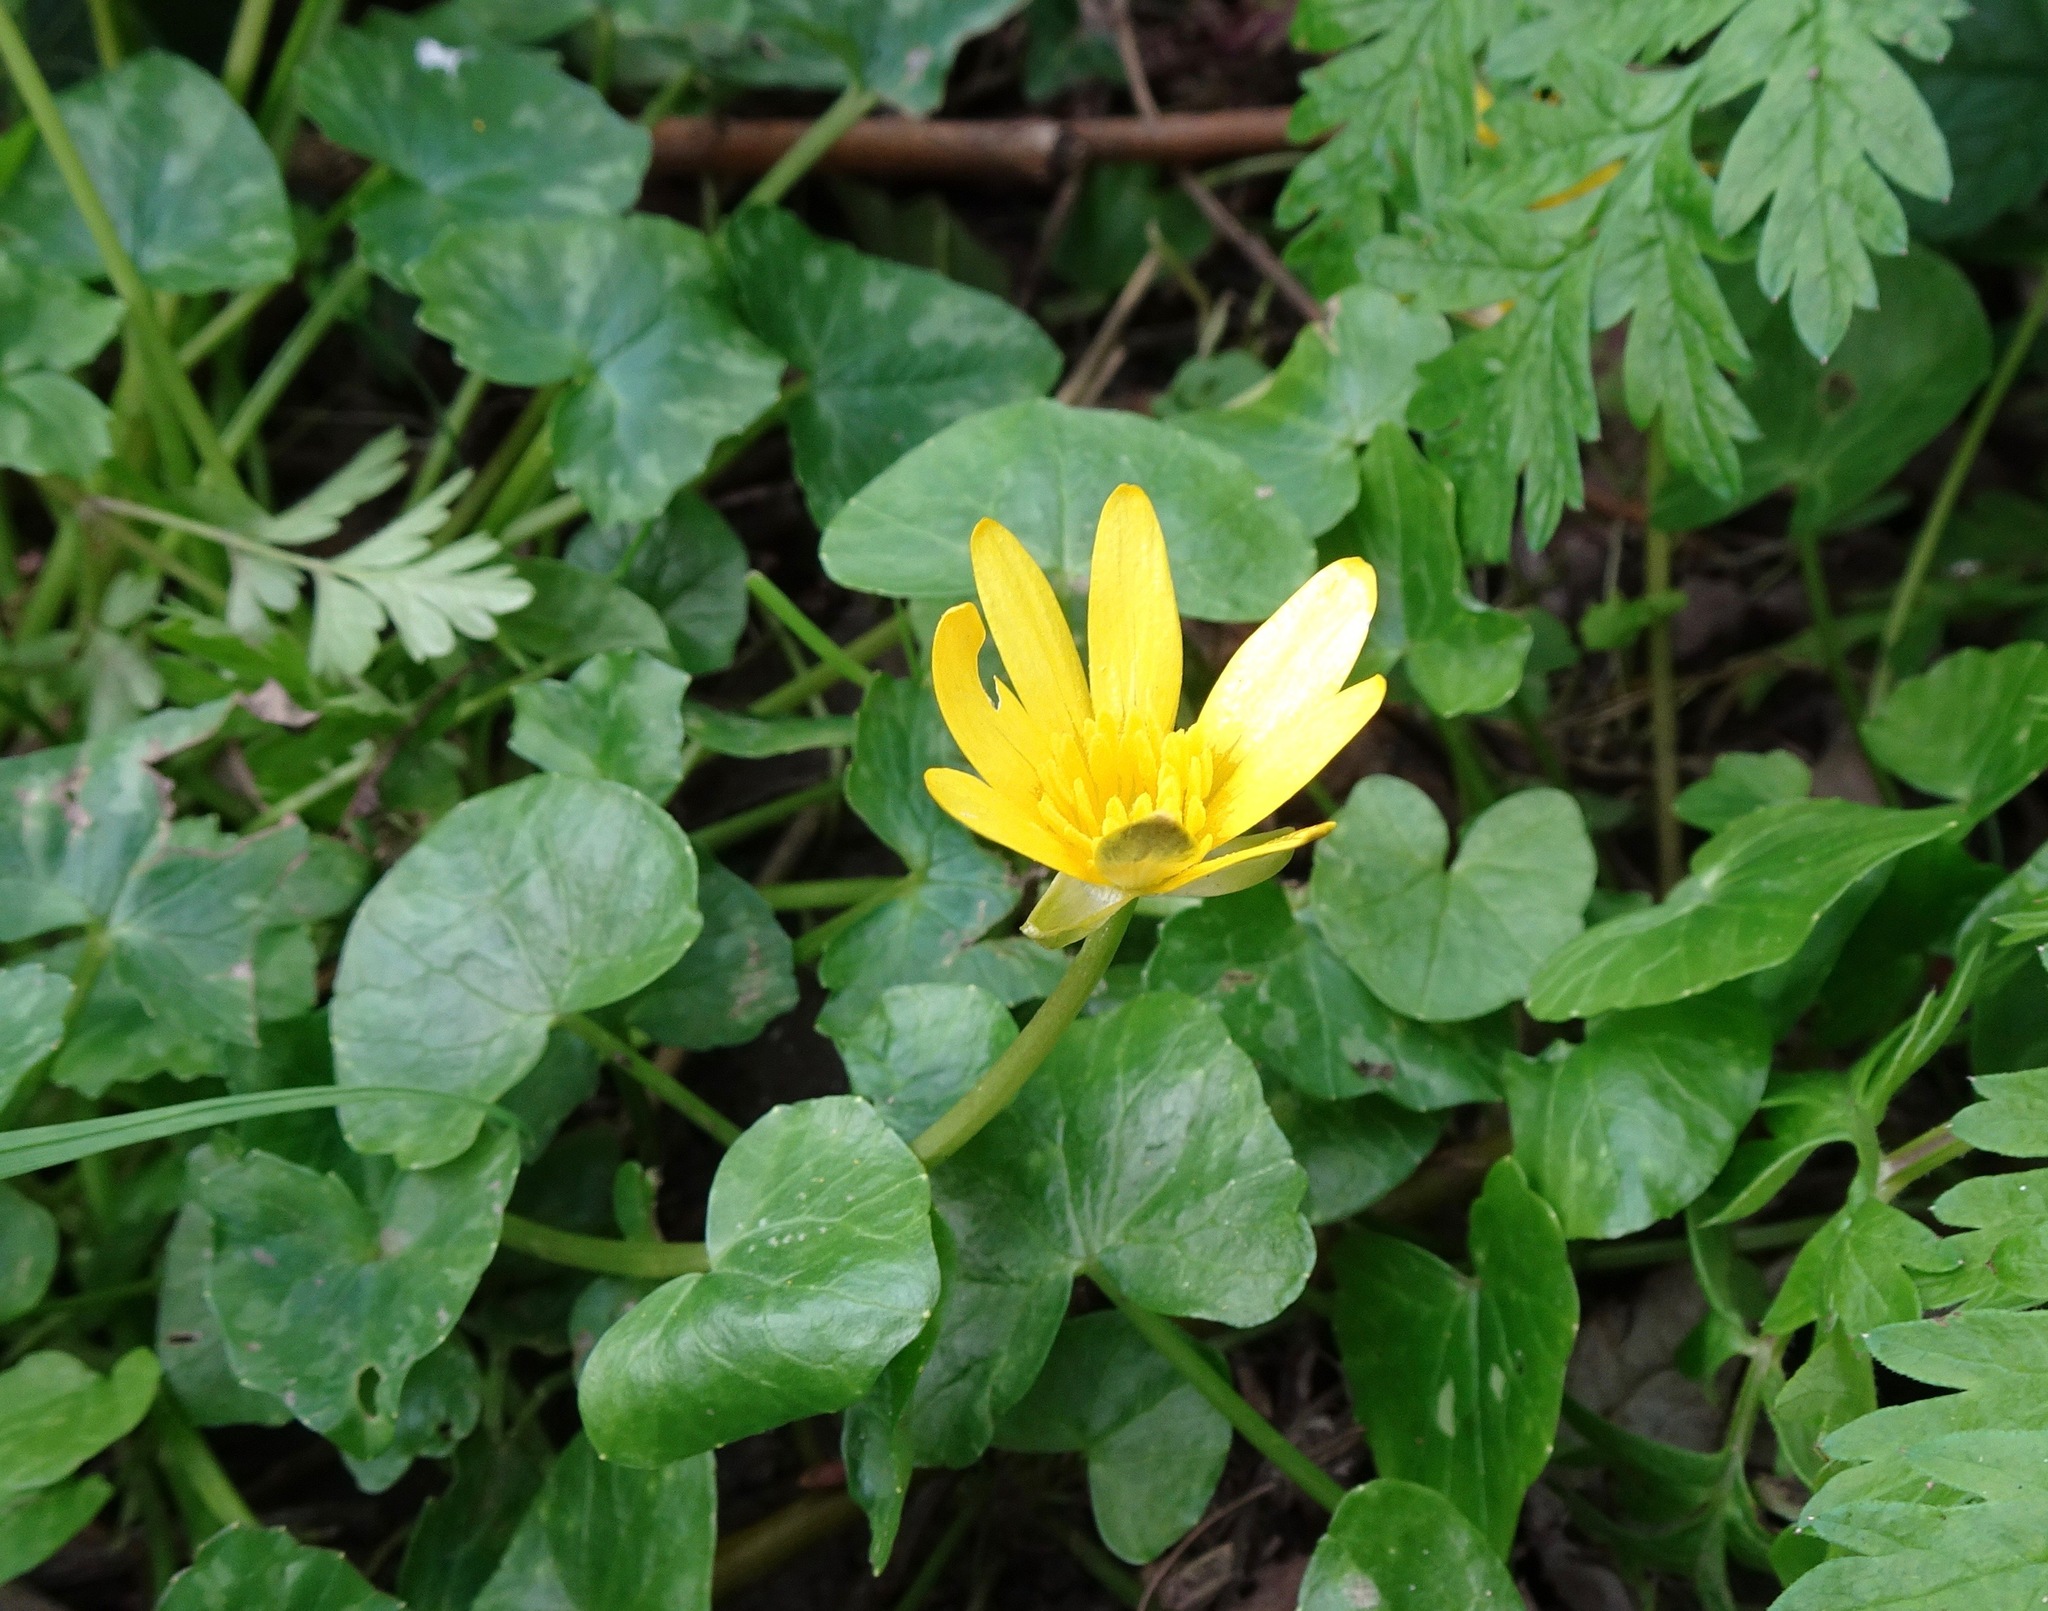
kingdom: Plantae
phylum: Tracheophyta
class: Magnoliopsida
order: Ranunculales
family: Ranunculaceae
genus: Ficaria
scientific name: Ficaria verna
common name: Lesser celandine
